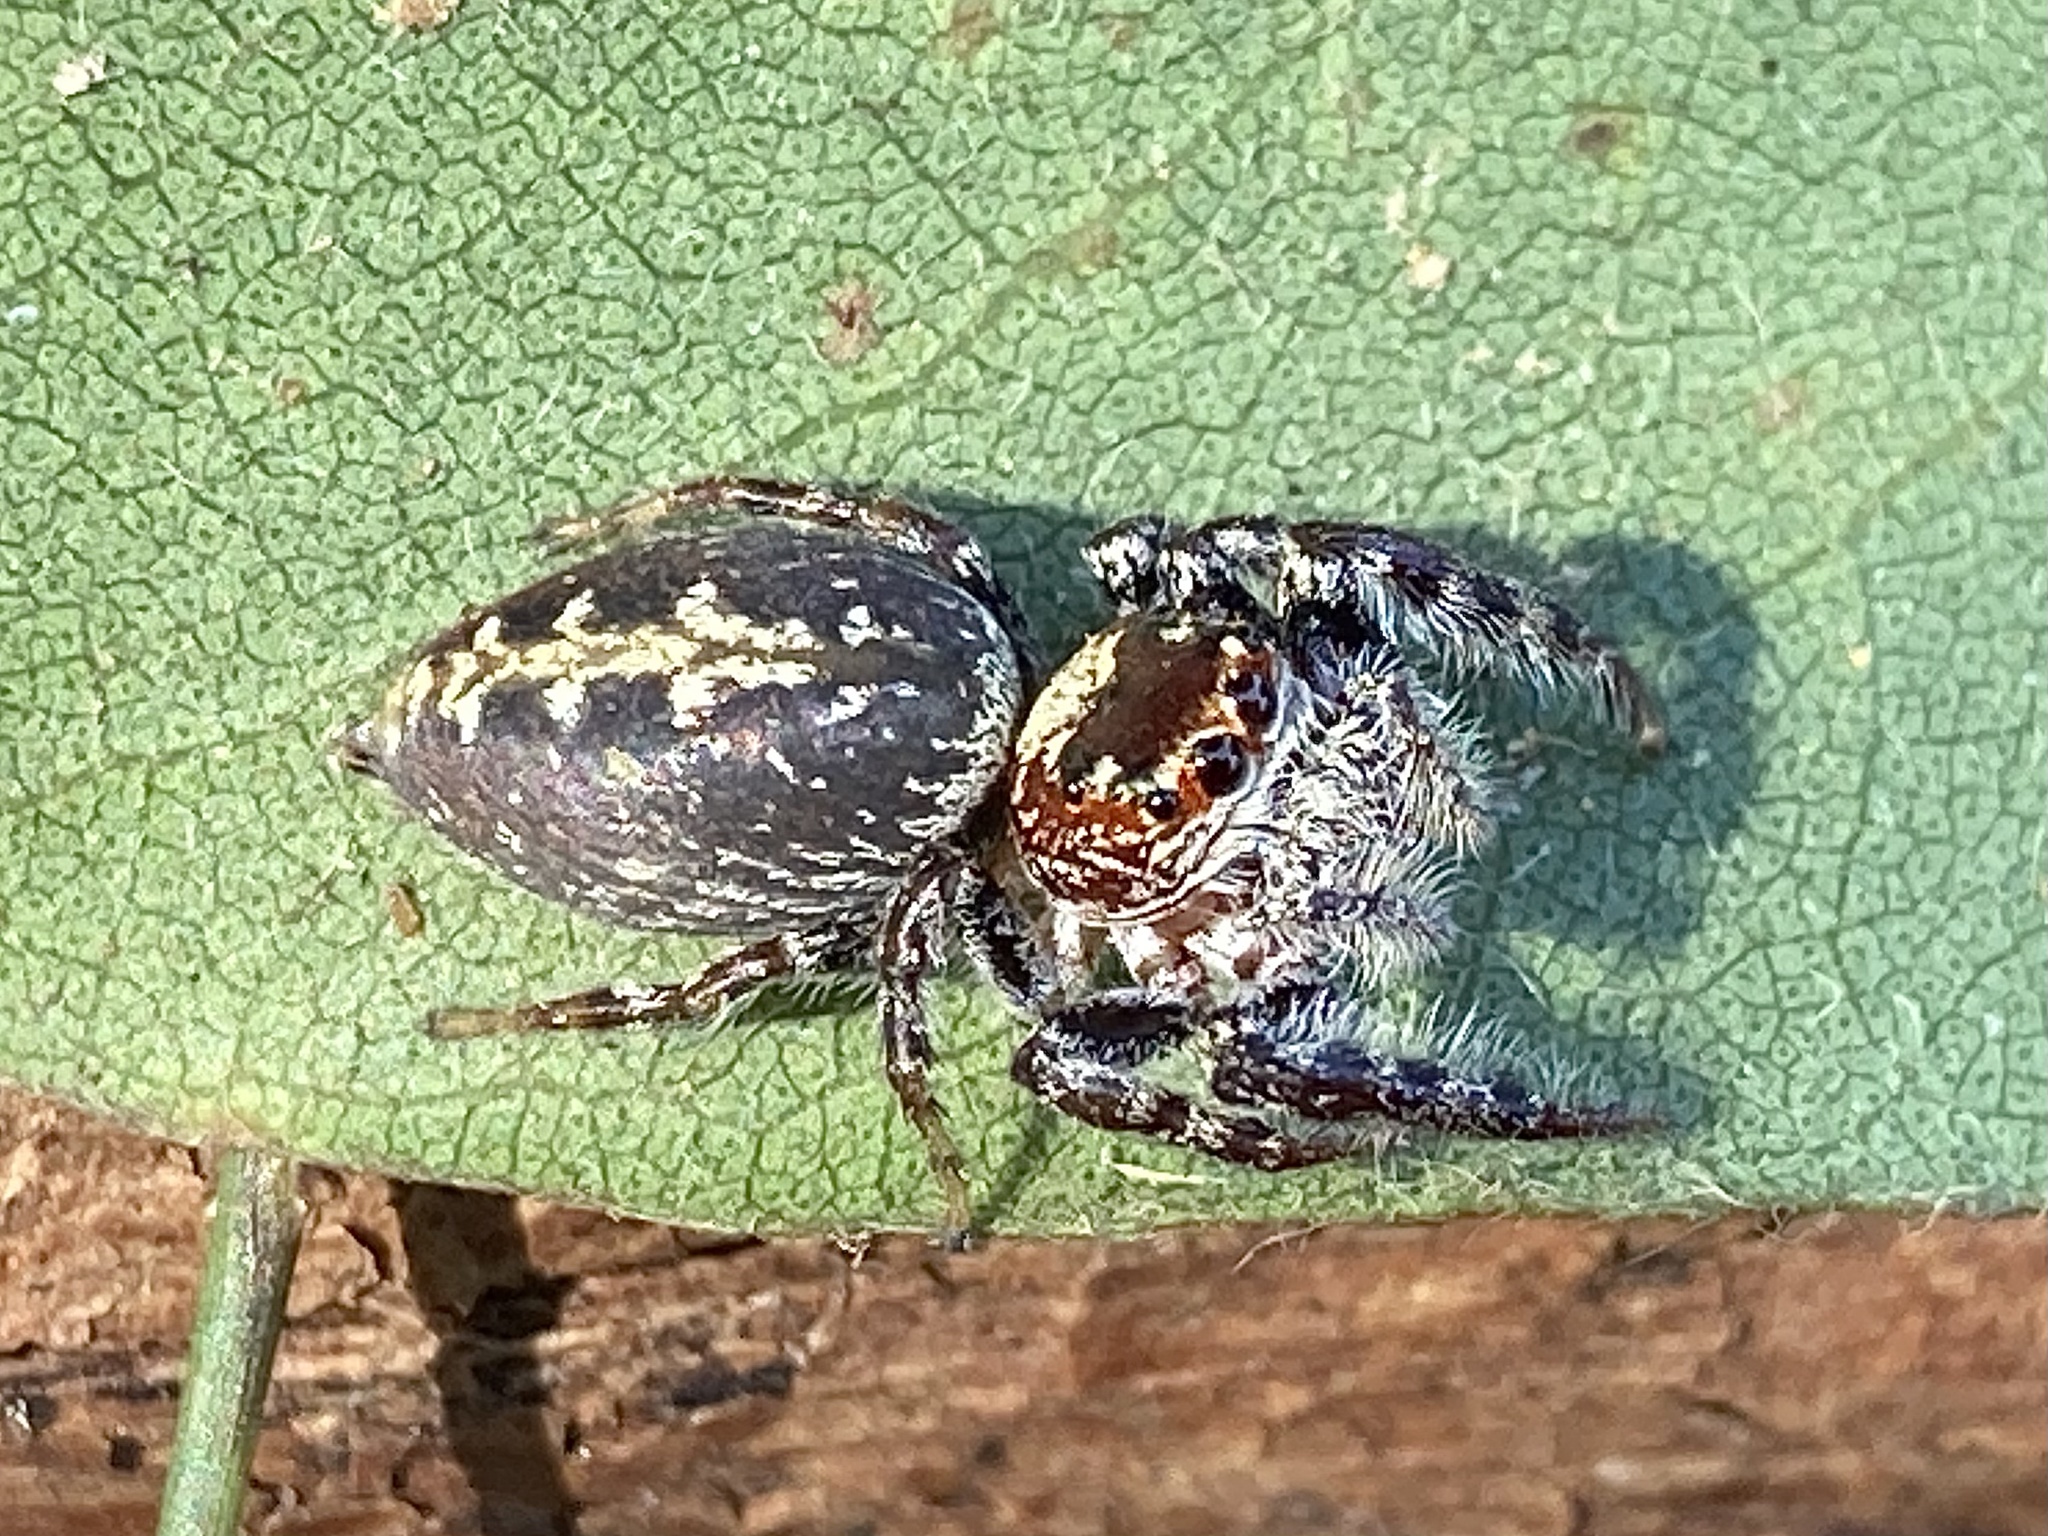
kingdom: Animalia
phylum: Arthropoda
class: Arachnida
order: Araneae
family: Salticidae
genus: Opisthoncus
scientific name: Opisthoncus quadratarius
